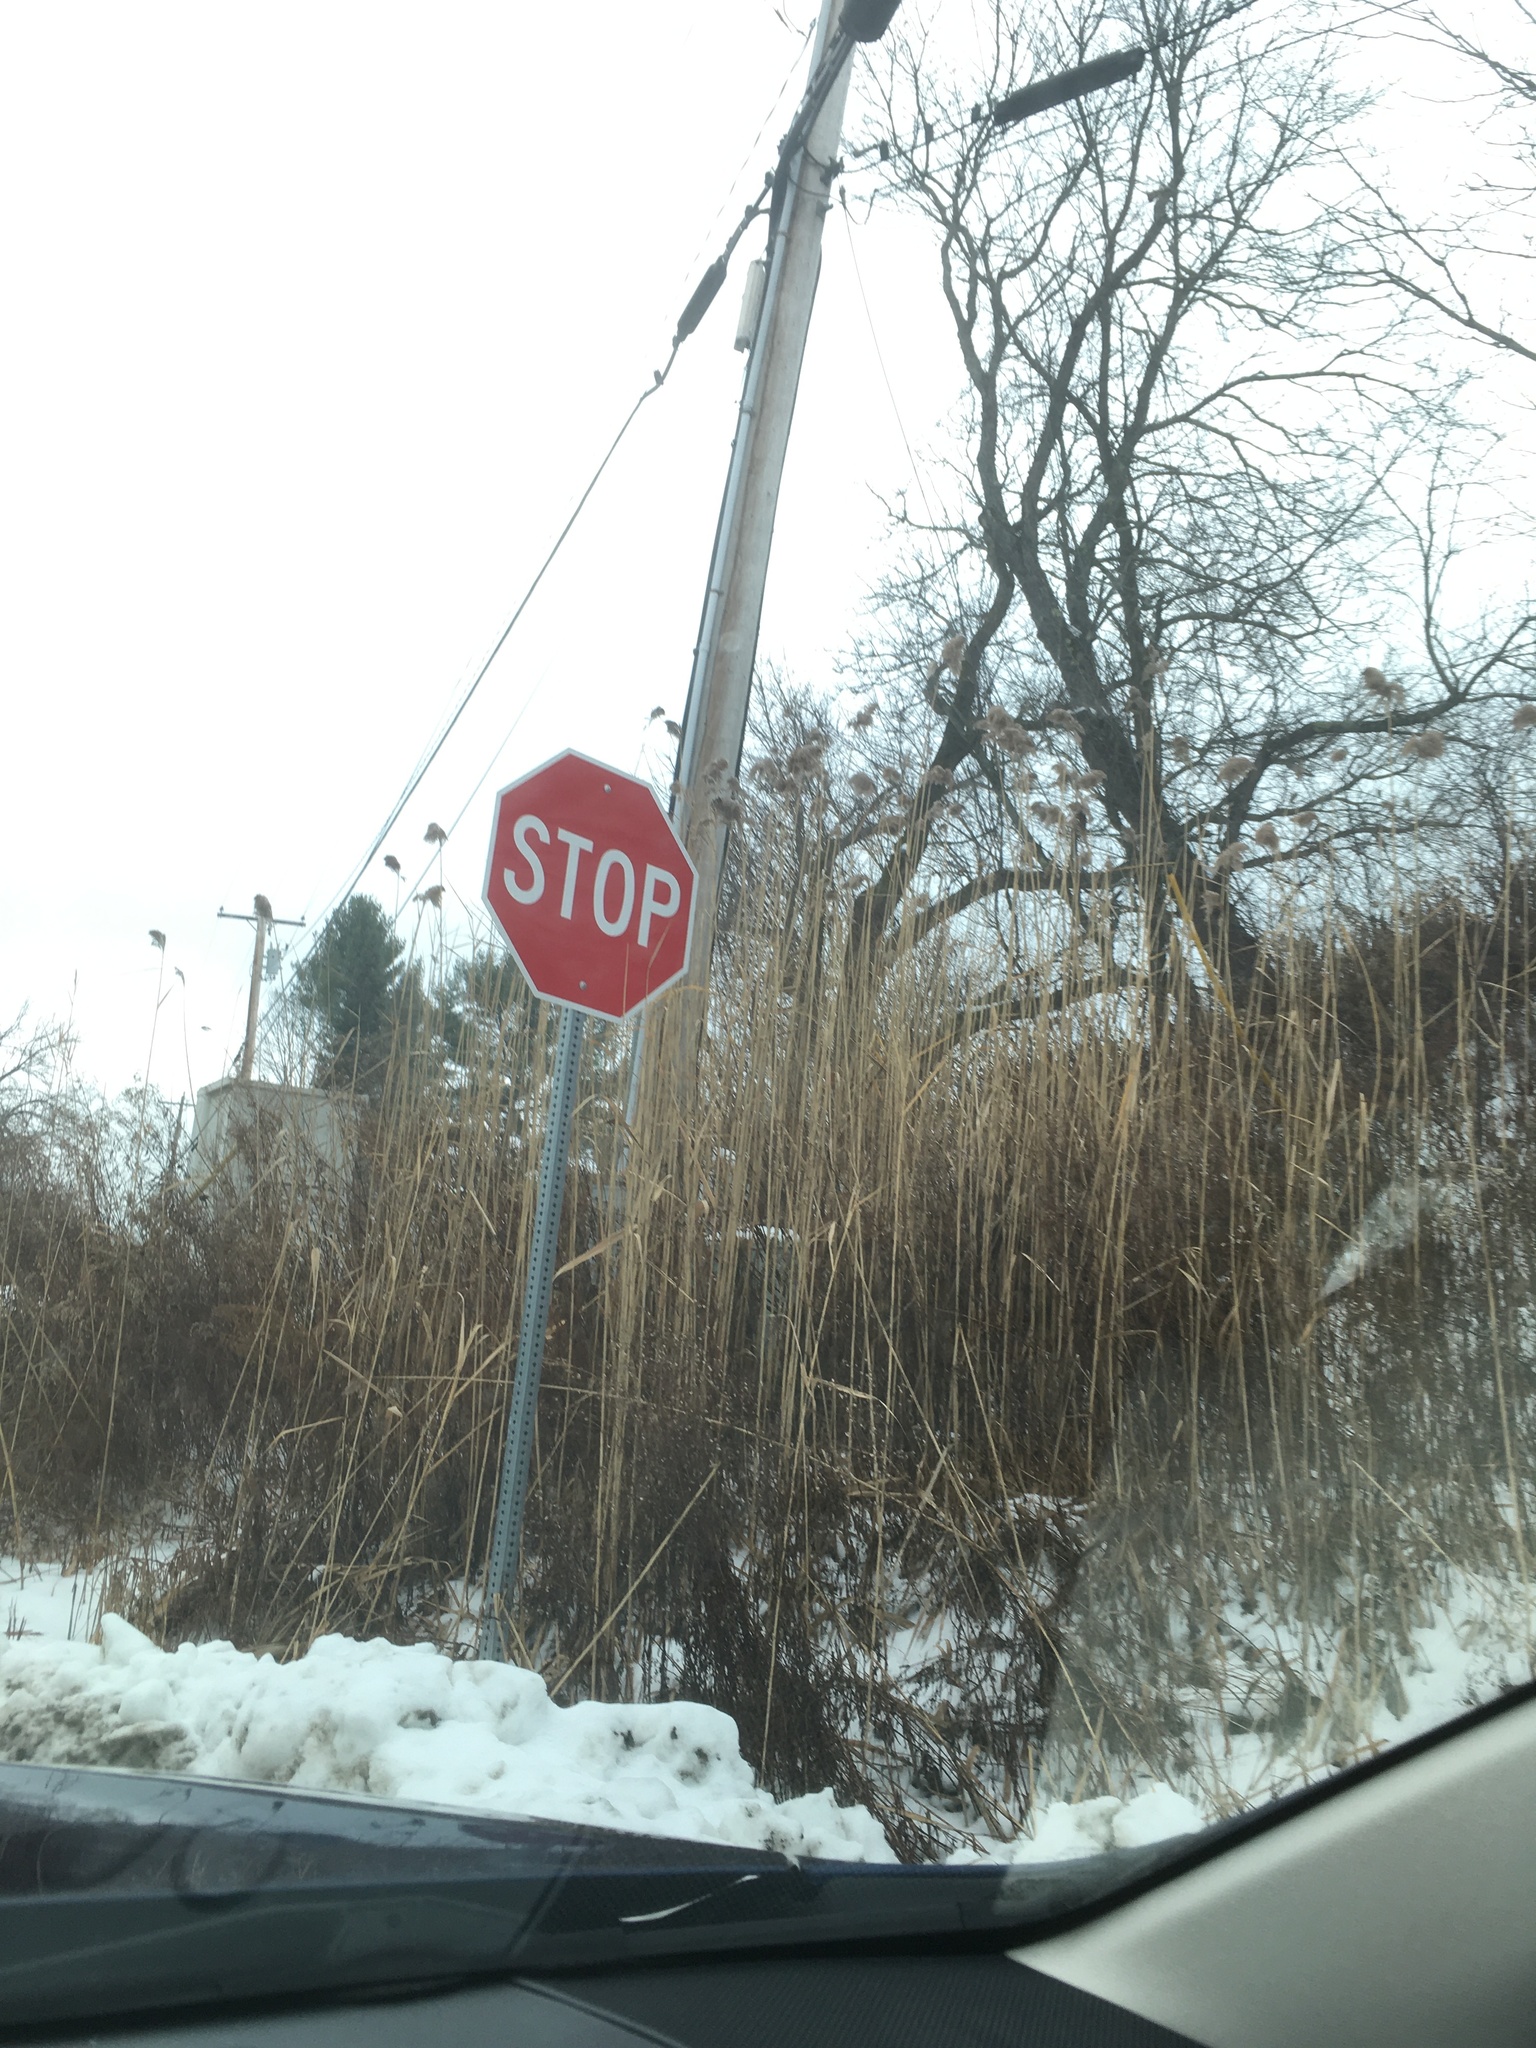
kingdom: Plantae
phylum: Tracheophyta
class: Liliopsida
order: Poales
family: Poaceae
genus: Phragmites
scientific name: Phragmites australis
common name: Common reed
